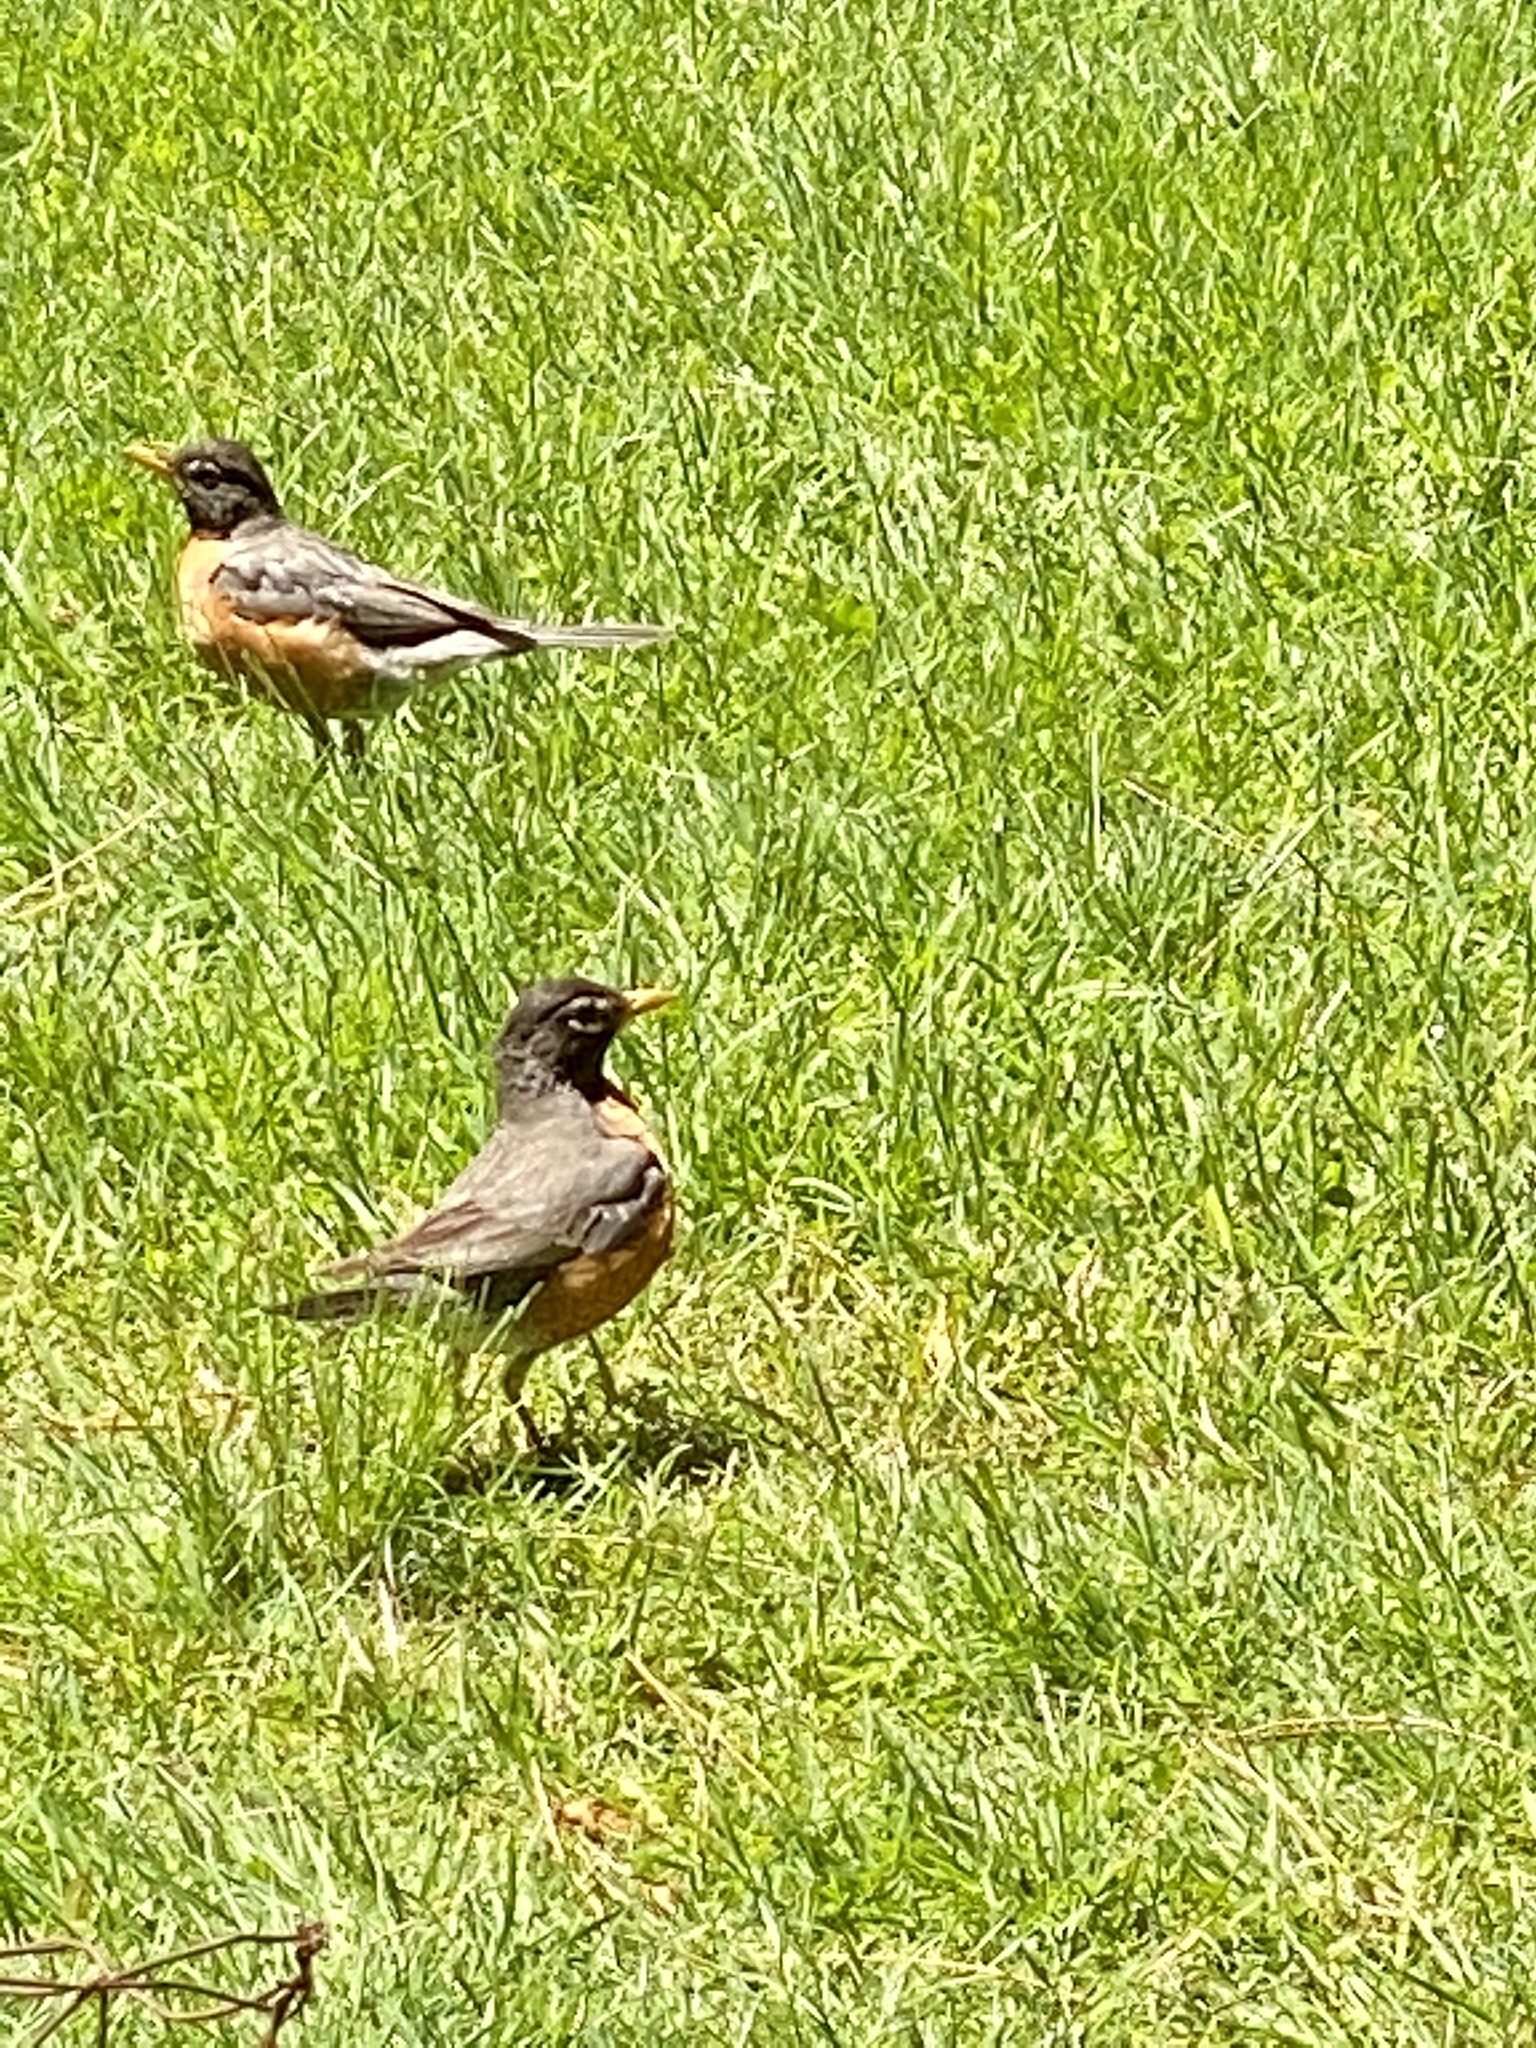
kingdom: Animalia
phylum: Chordata
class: Aves
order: Passeriformes
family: Turdidae
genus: Turdus
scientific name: Turdus migratorius
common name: American robin
